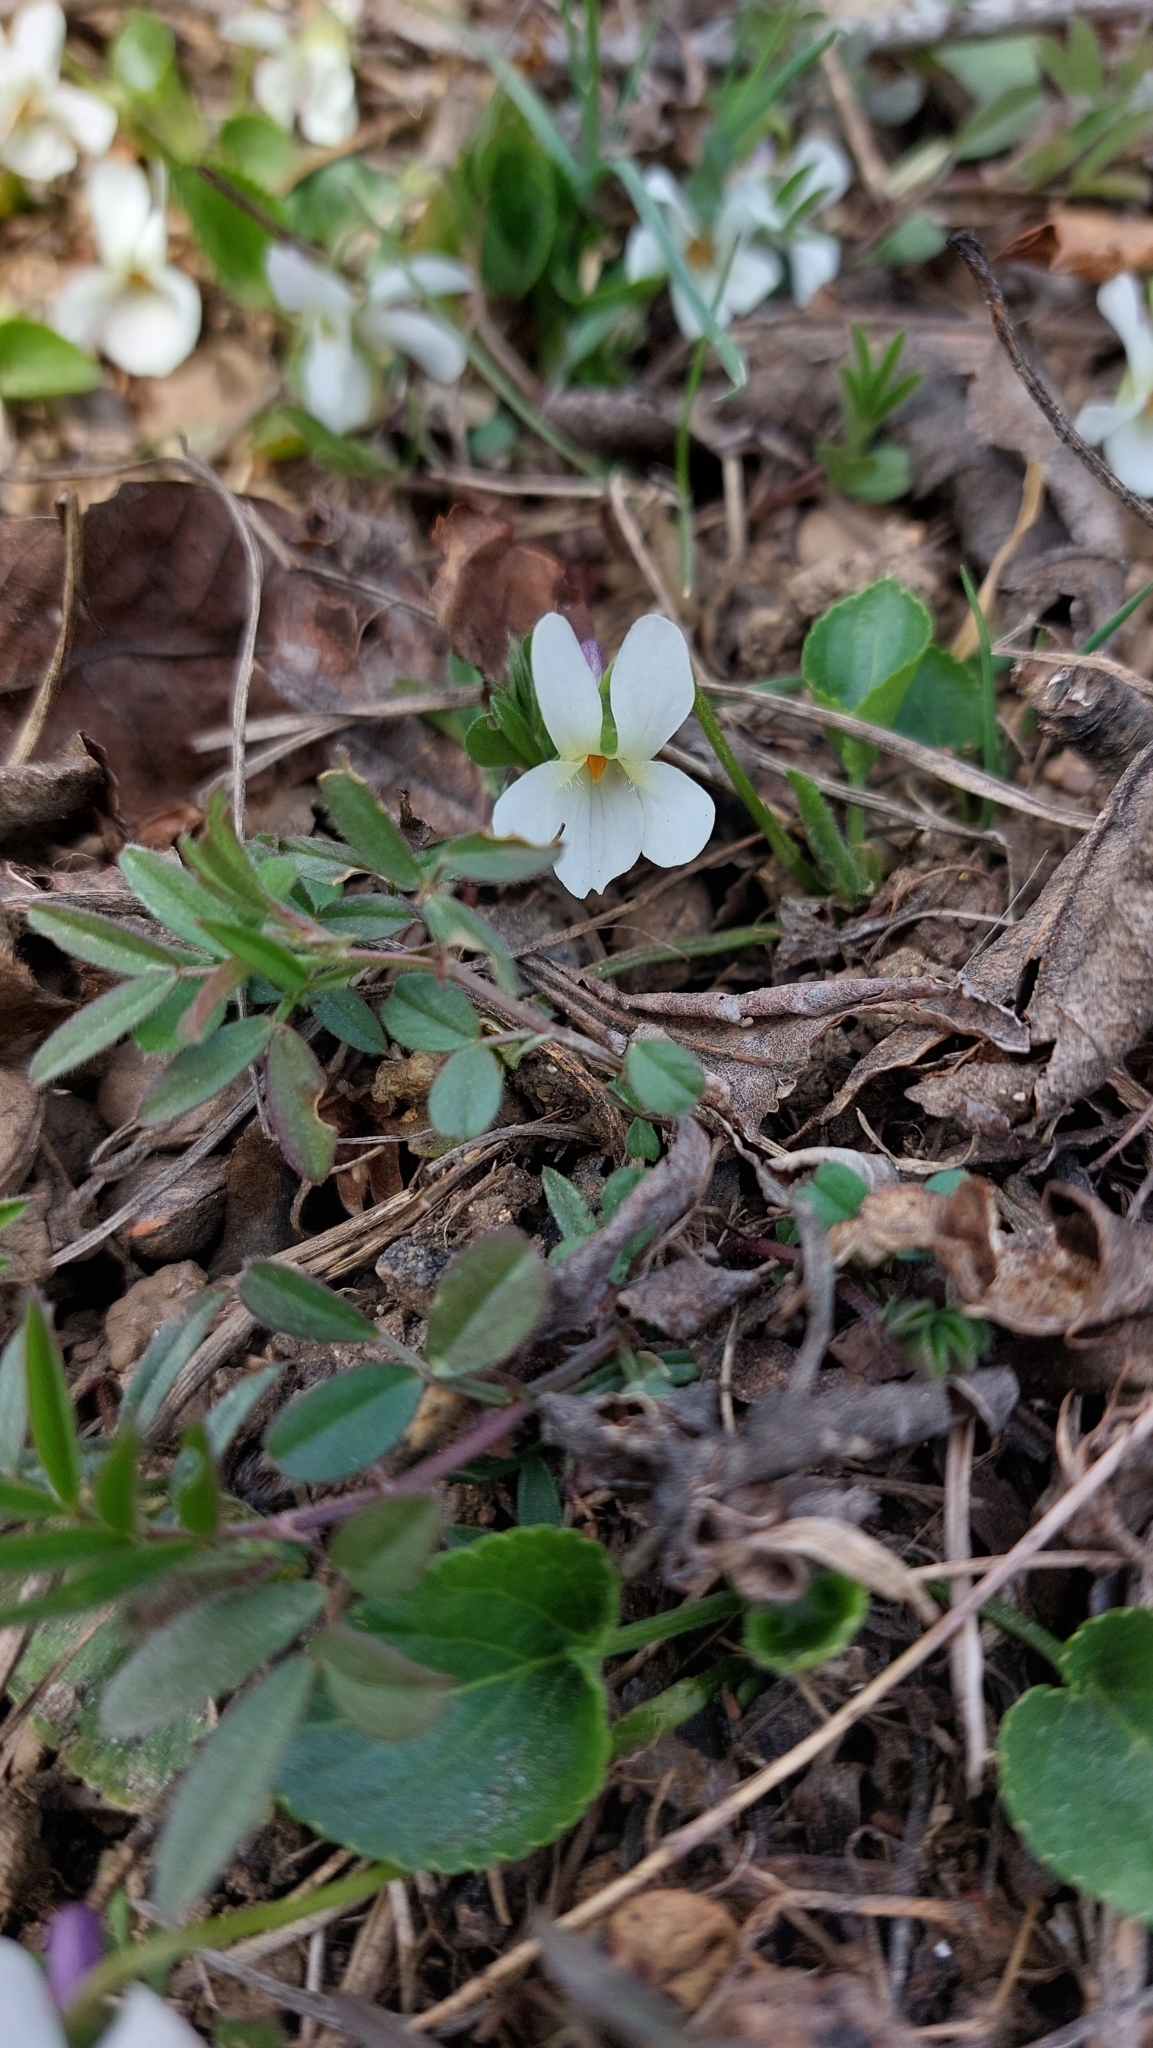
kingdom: Plantae
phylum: Tracheophyta
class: Magnoliopsida
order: Malpighiales
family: Violaceae
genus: Viola
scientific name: Viola odorata
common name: Sweet violet
